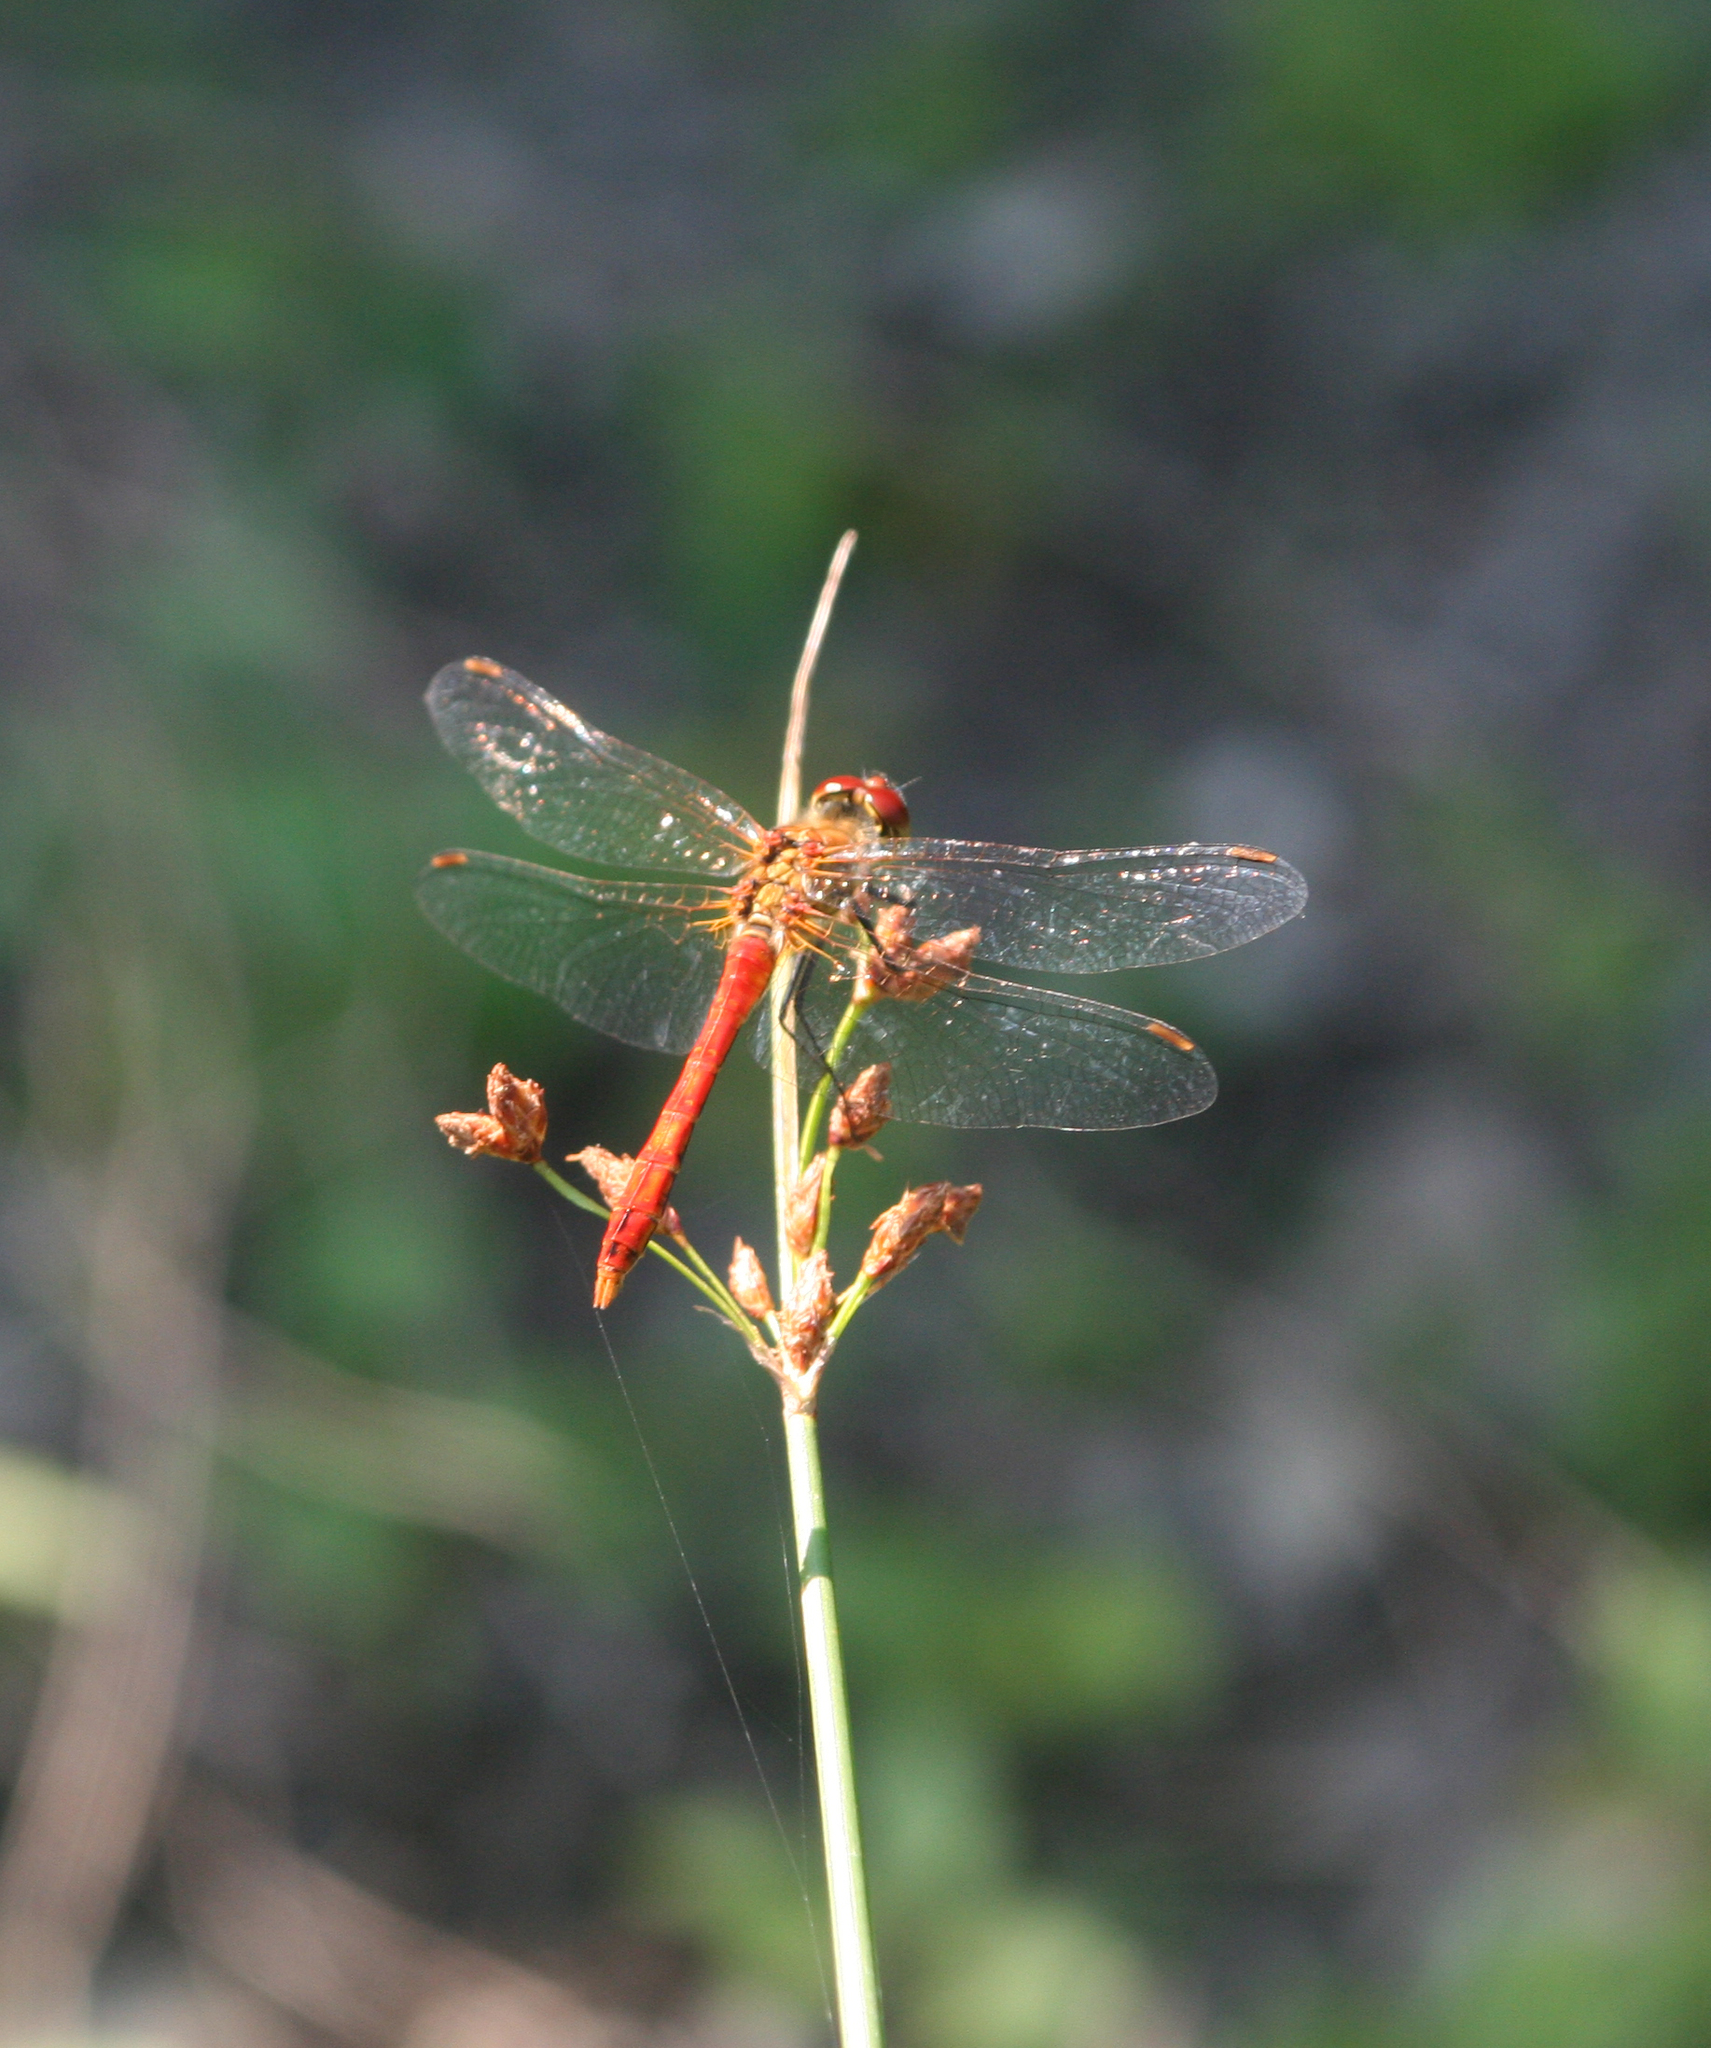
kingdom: Plantae
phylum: Tracheophyta
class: Liliopsida
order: Poales
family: Cyperaceae
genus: Schoenoplectus
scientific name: Schoenoplectus lacustris
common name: Common club-rush
